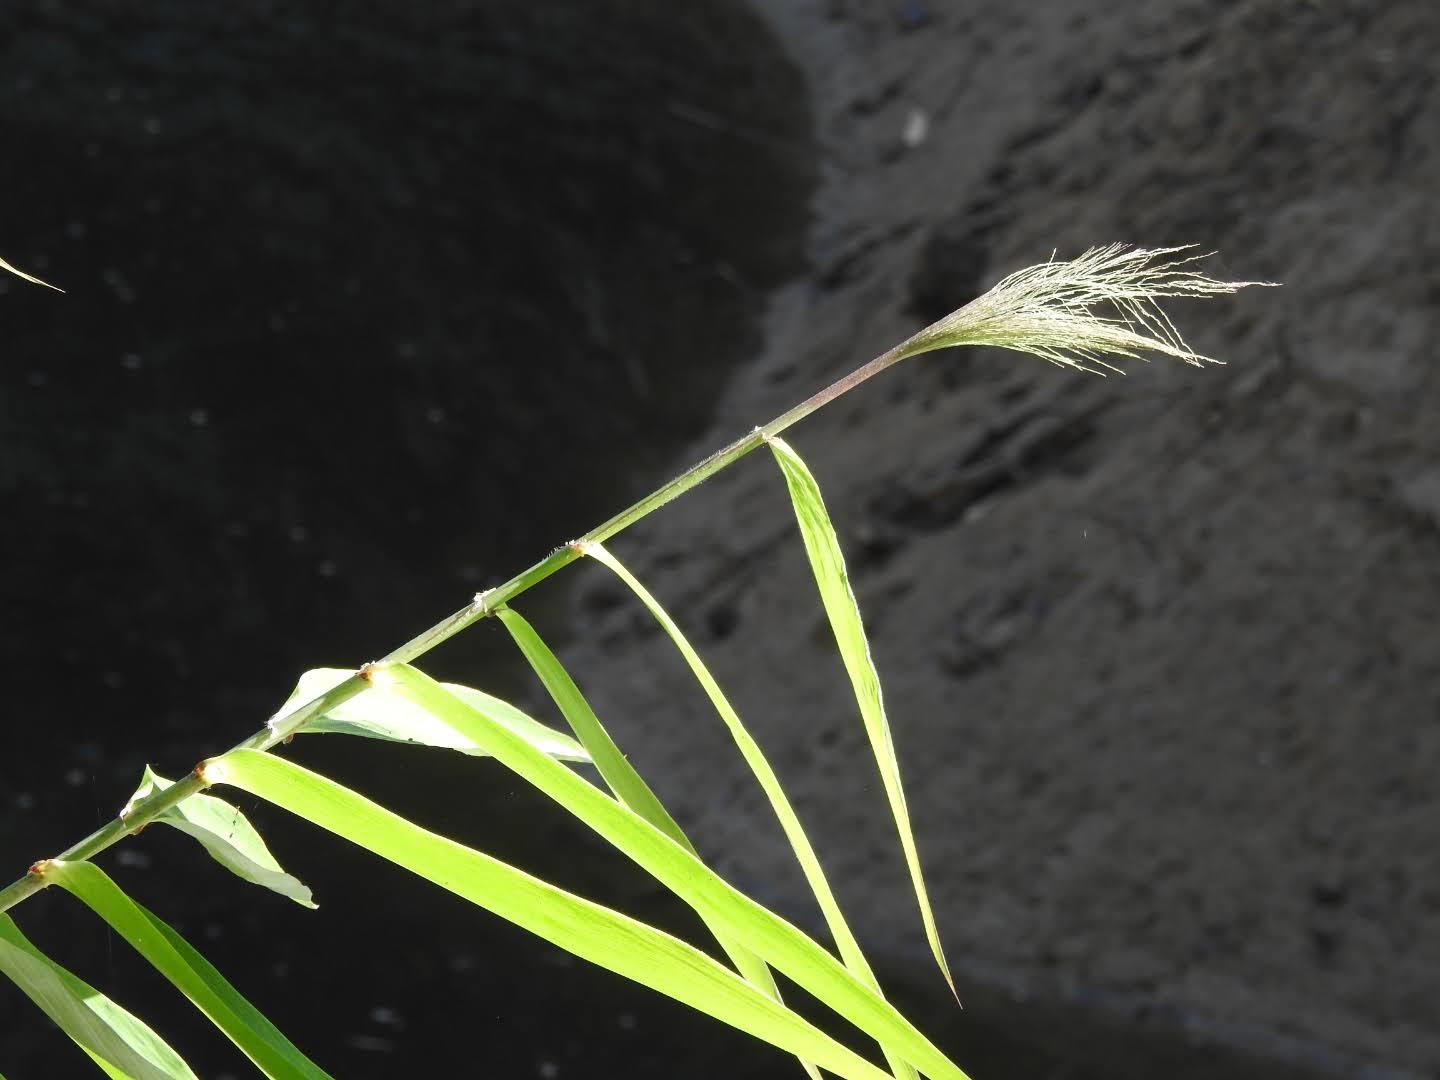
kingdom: Plantae
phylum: Tracheophyta
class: Liliopsida
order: Poales
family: Poaceae
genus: Thysanolaena
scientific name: Thysanolaena latifolia
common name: Tiger grass
